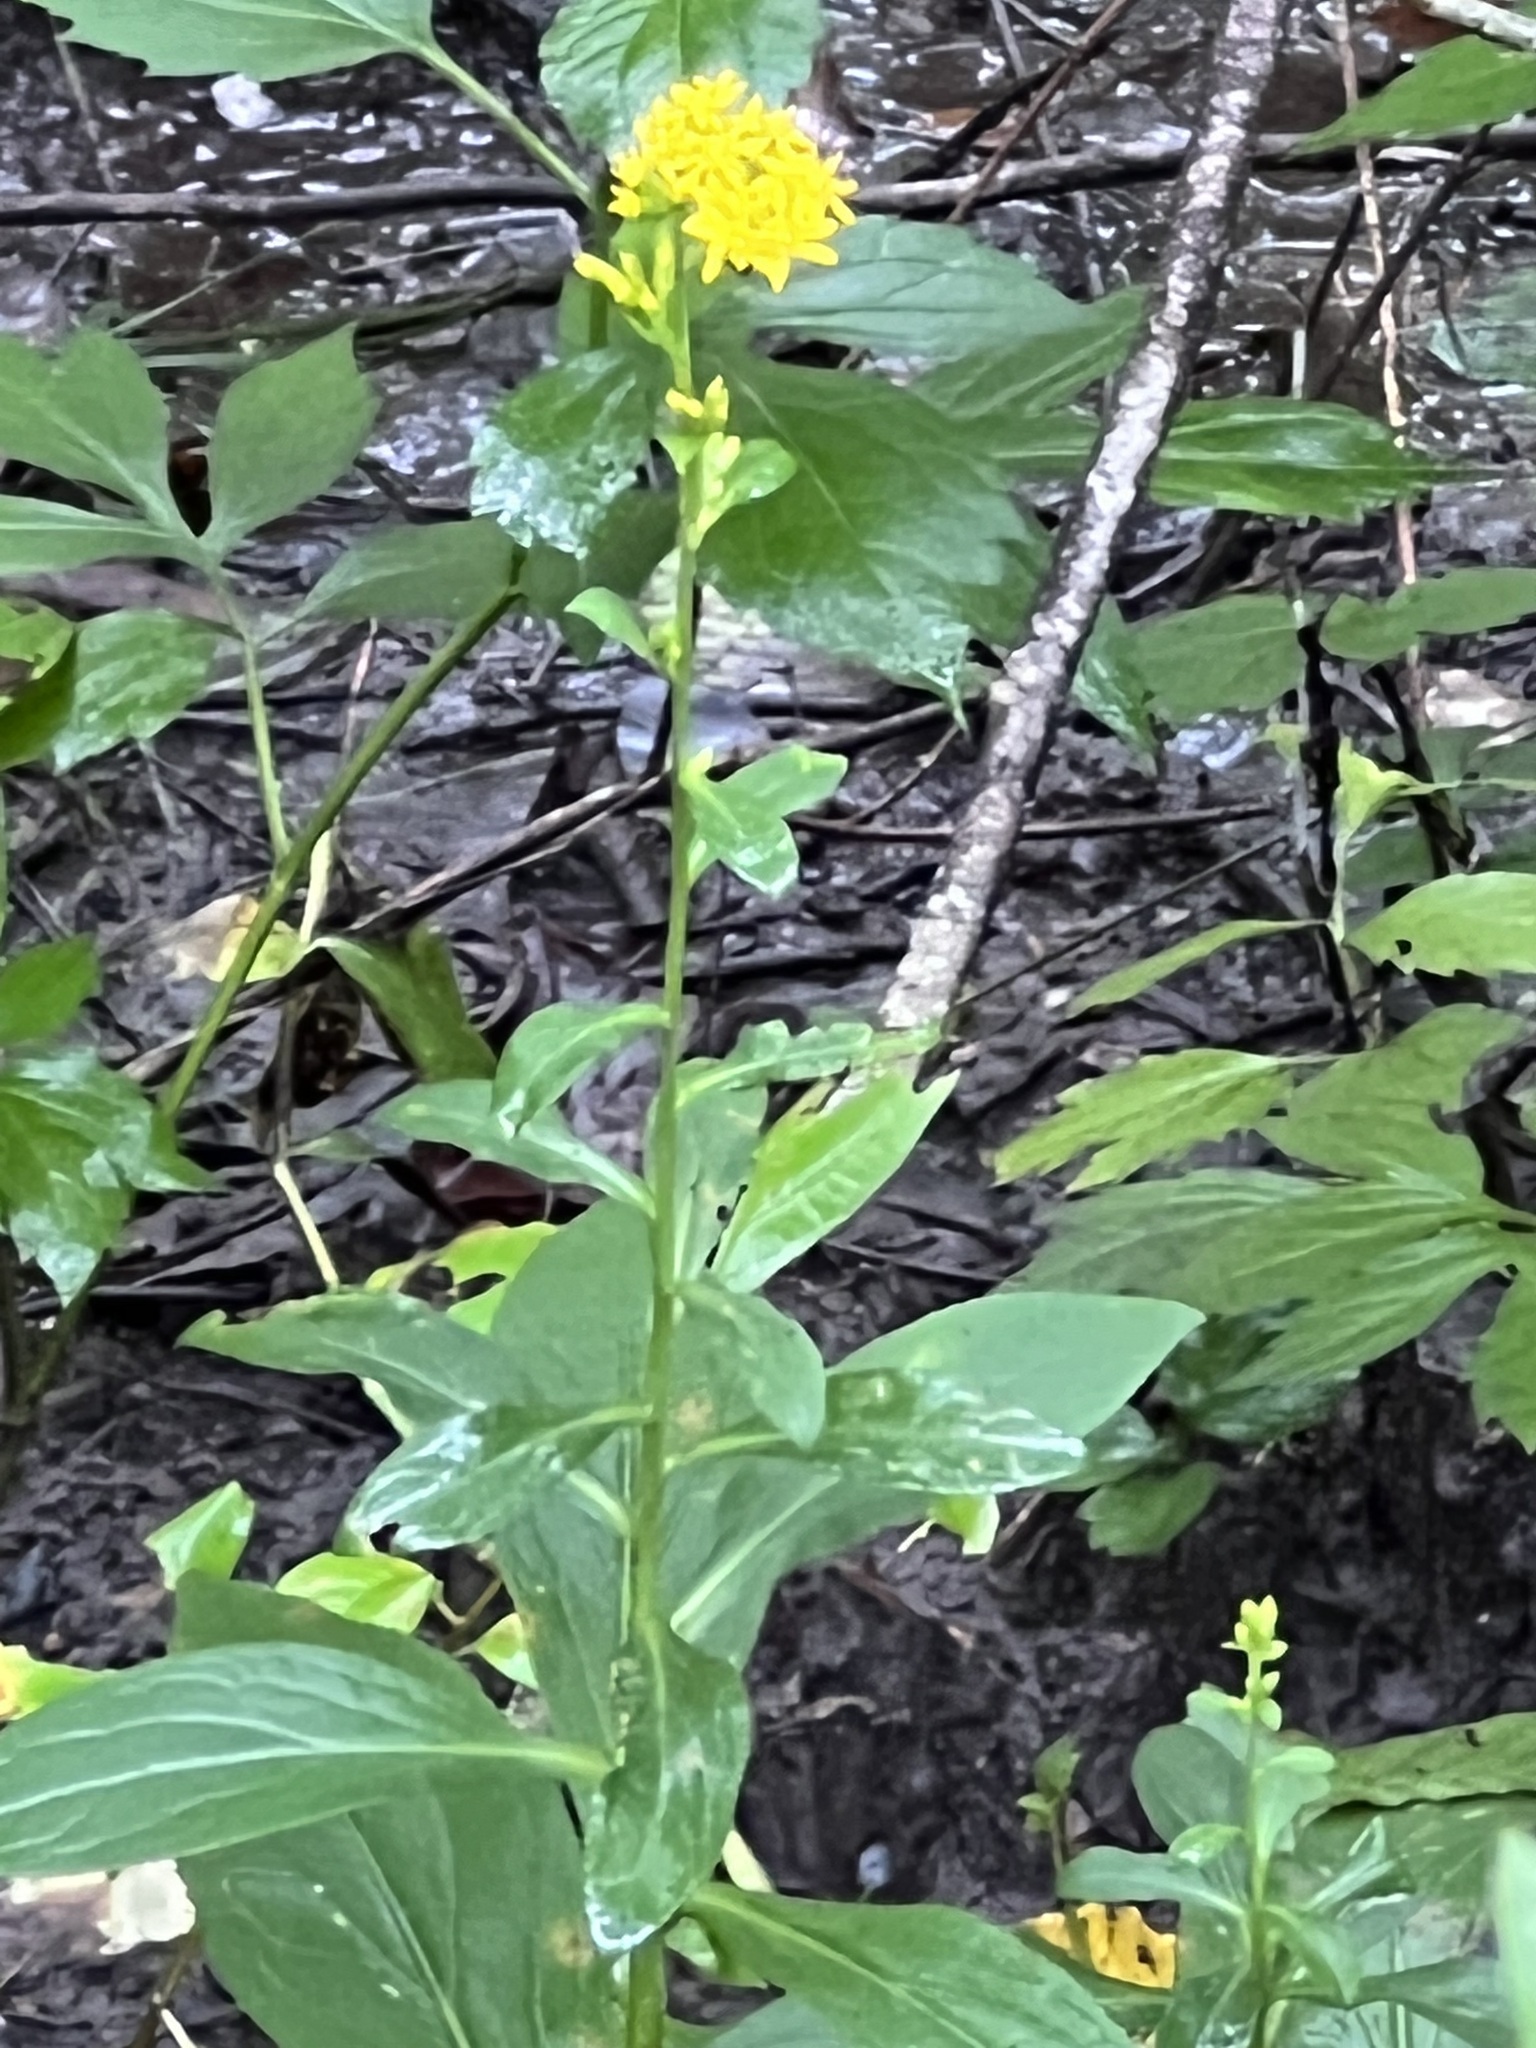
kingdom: Plantae
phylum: Tracheophyta
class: Magnoliopsida
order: Asterales
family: Asteraceae
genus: Solidago
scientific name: Solidago patula
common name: Rough-leaf goldenrod
